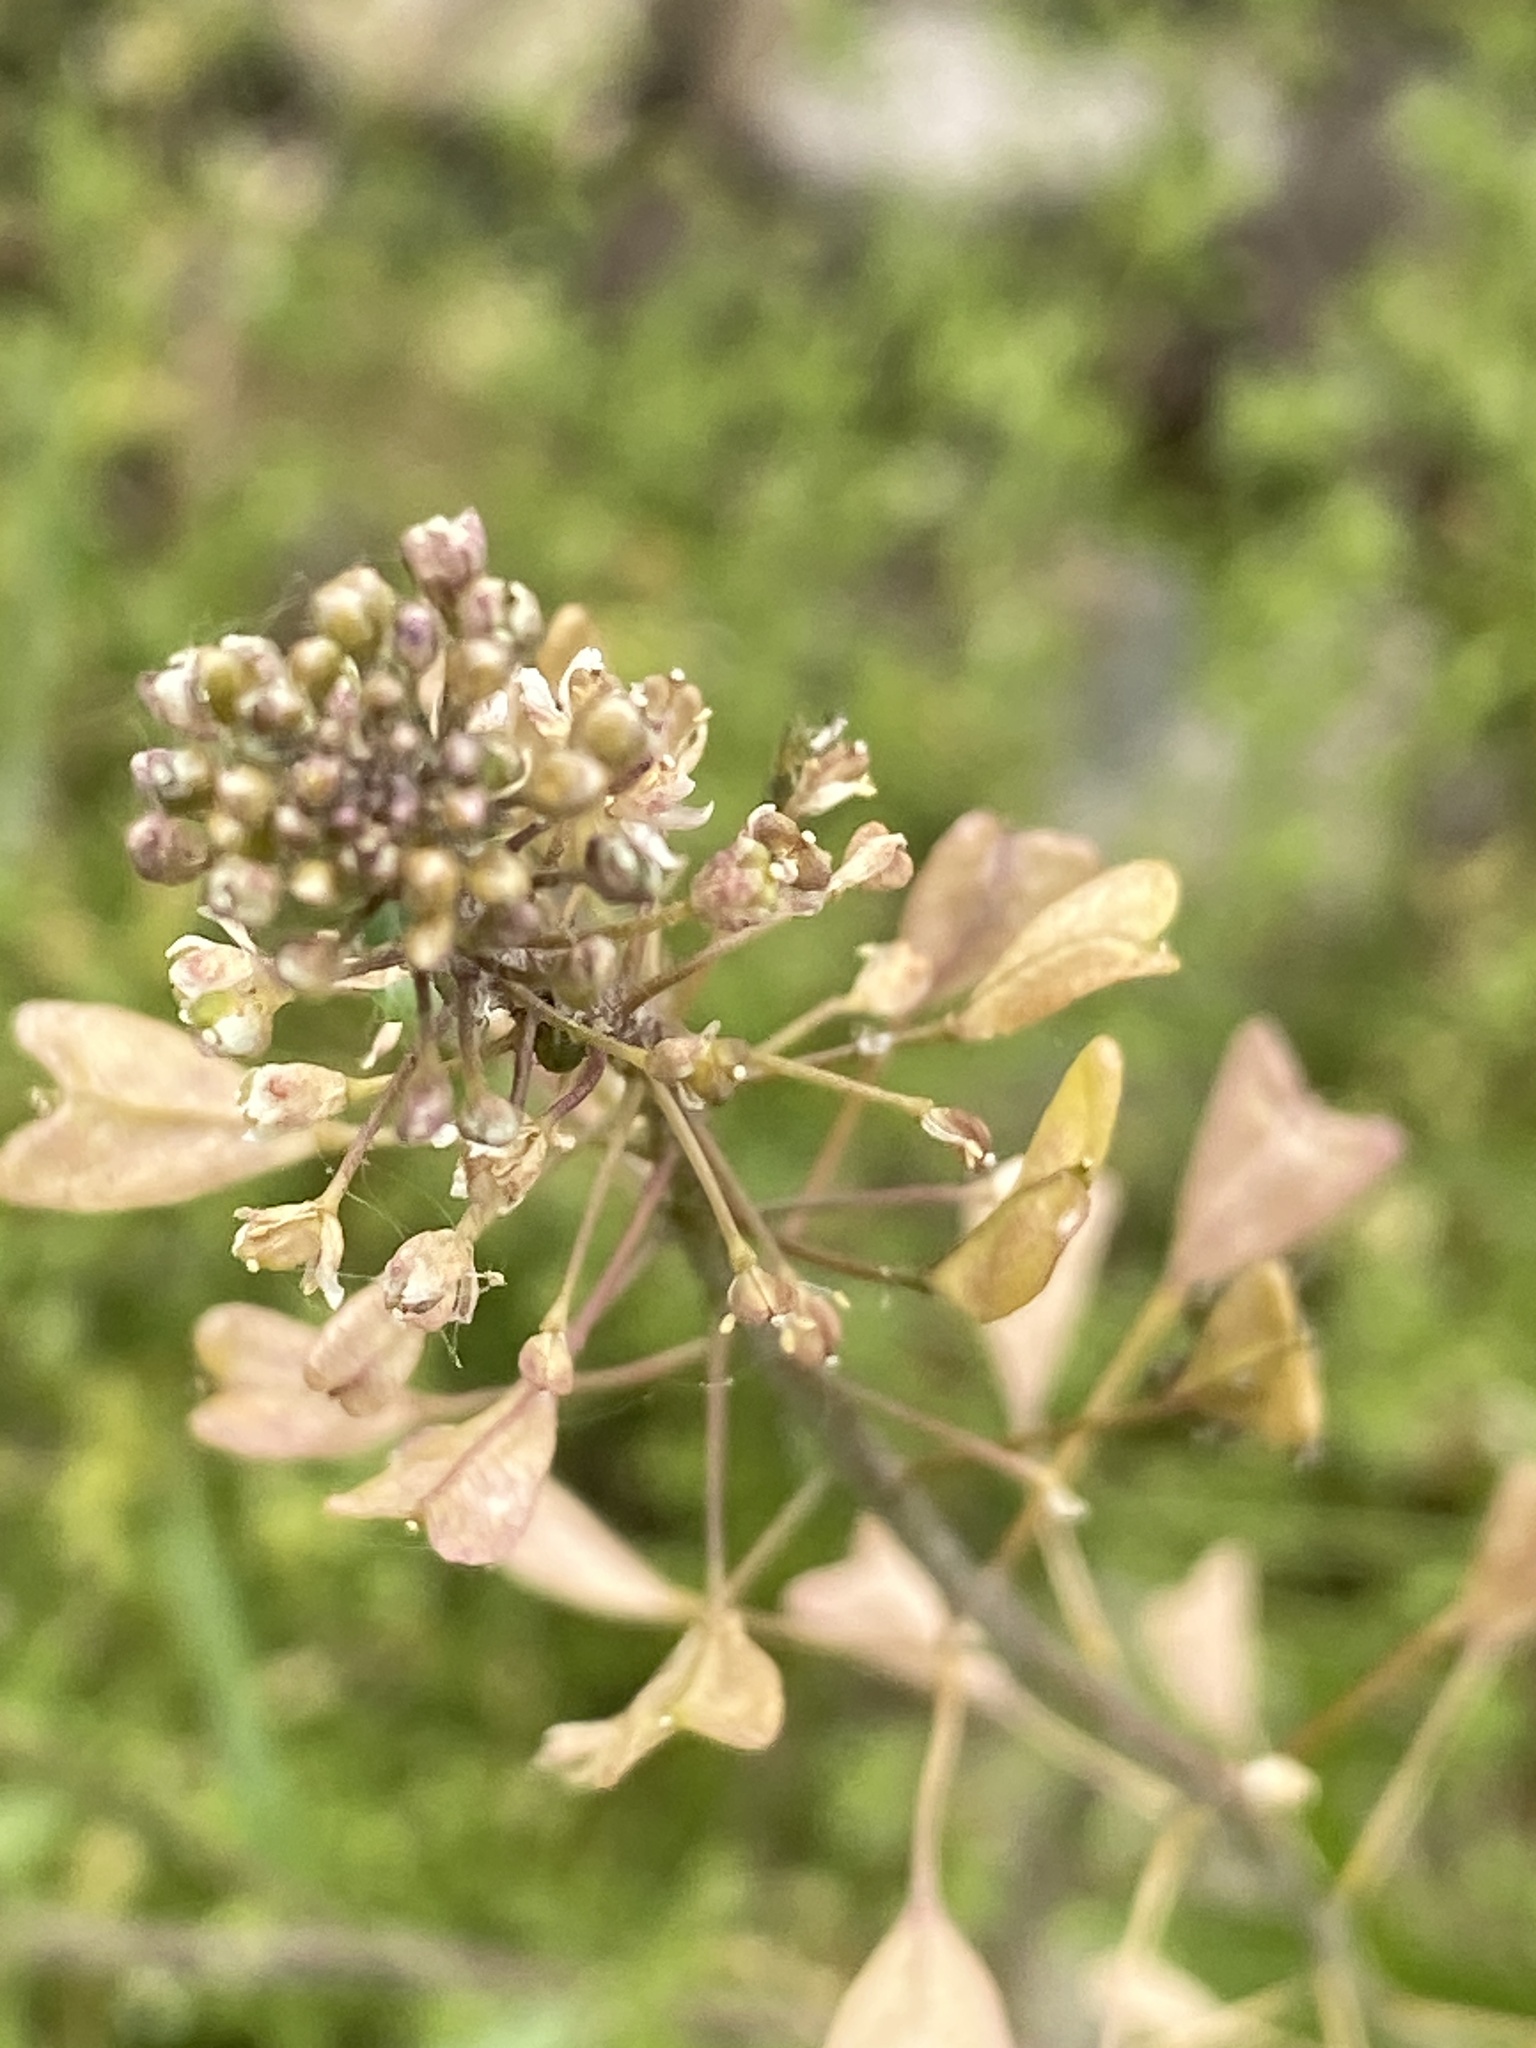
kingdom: Plantae
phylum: Tracheophyta
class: Magnoliopsida
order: Brassicales
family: Brassicaceae
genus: Capsella
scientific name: Capsella bursa-pastoris
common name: Shepherd's purse
